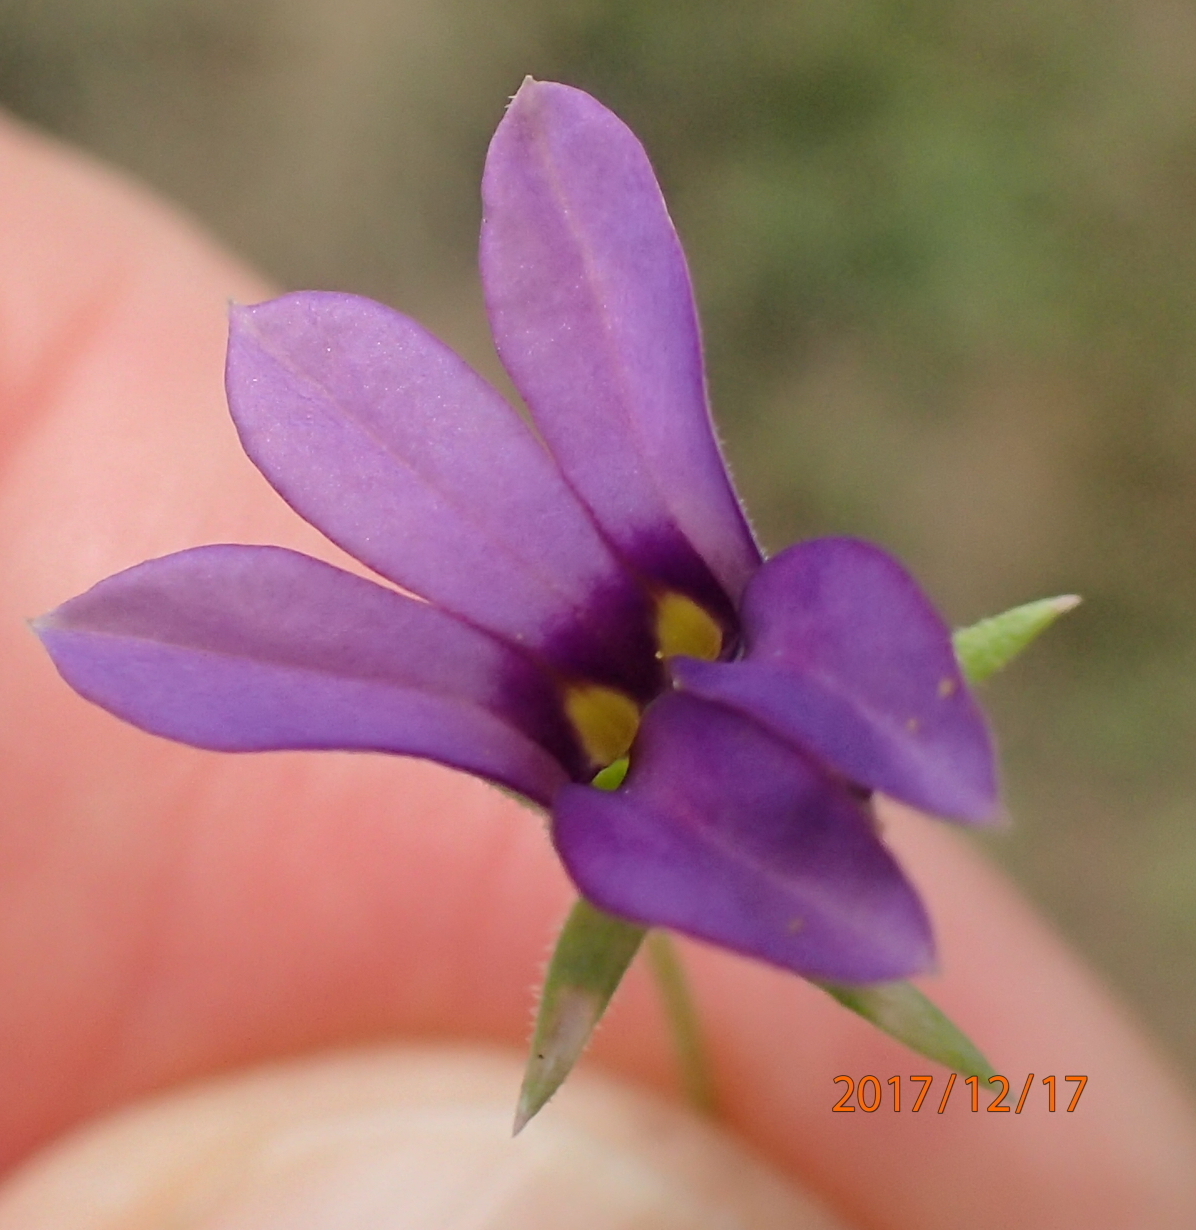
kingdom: Plantae
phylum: Tracheophyta
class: Magnoliopsida
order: Asterales
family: Campanulaceae
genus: Monopsis
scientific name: Monopsis stellarioides
